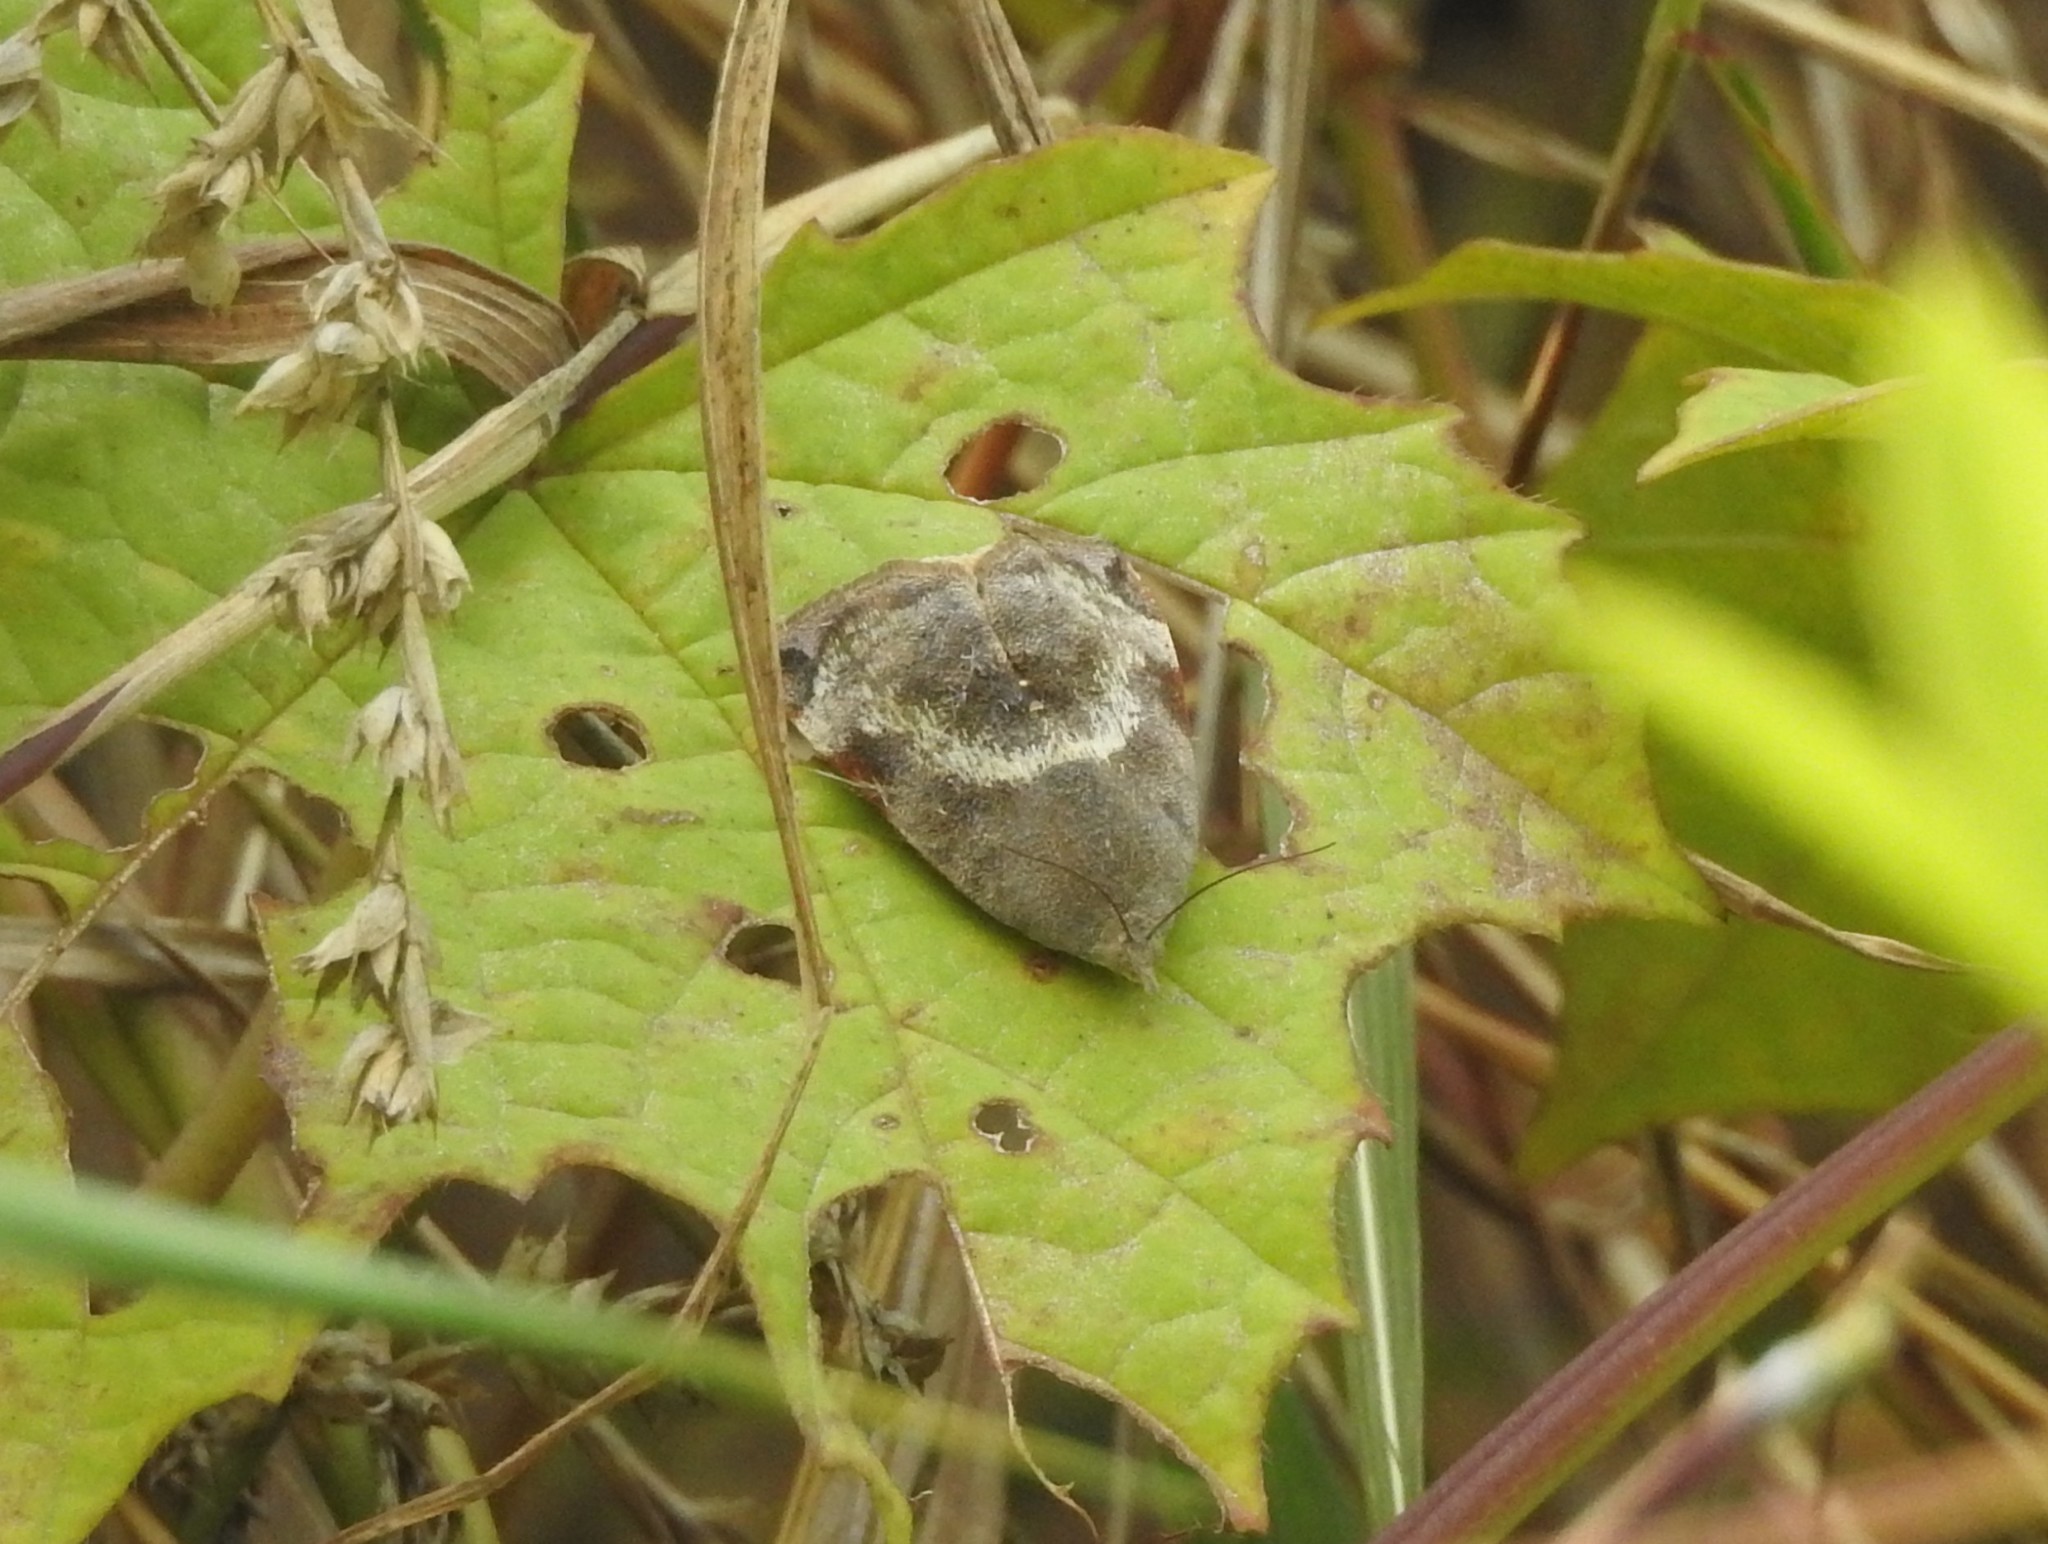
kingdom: Animalia
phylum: Arthropoda
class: Insecta
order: Lepidoptera
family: Hyblaeidae
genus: Hyblaea
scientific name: Hyblaea puera
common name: Teak defoliator moth
